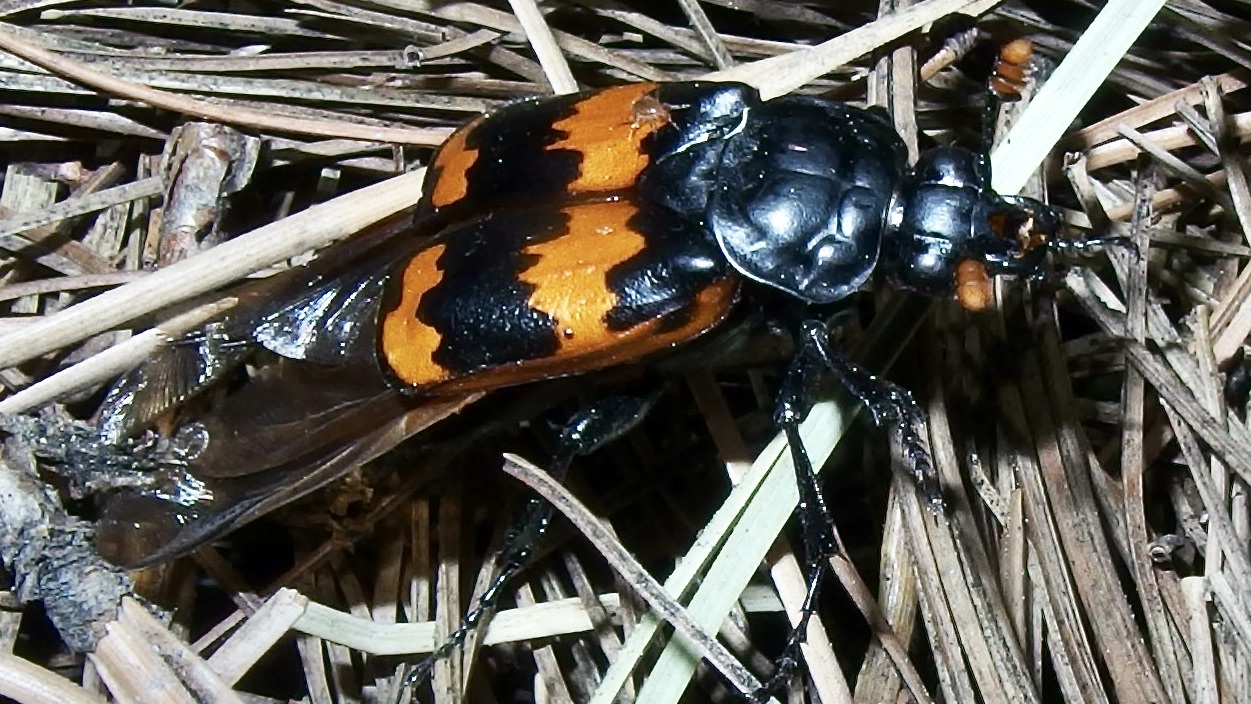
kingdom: Animalia
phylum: Arthropoda
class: Insecta
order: Coleoptera
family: Staphylinidae
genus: Nicrophorus
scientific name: Nicrophorus mexicanus
